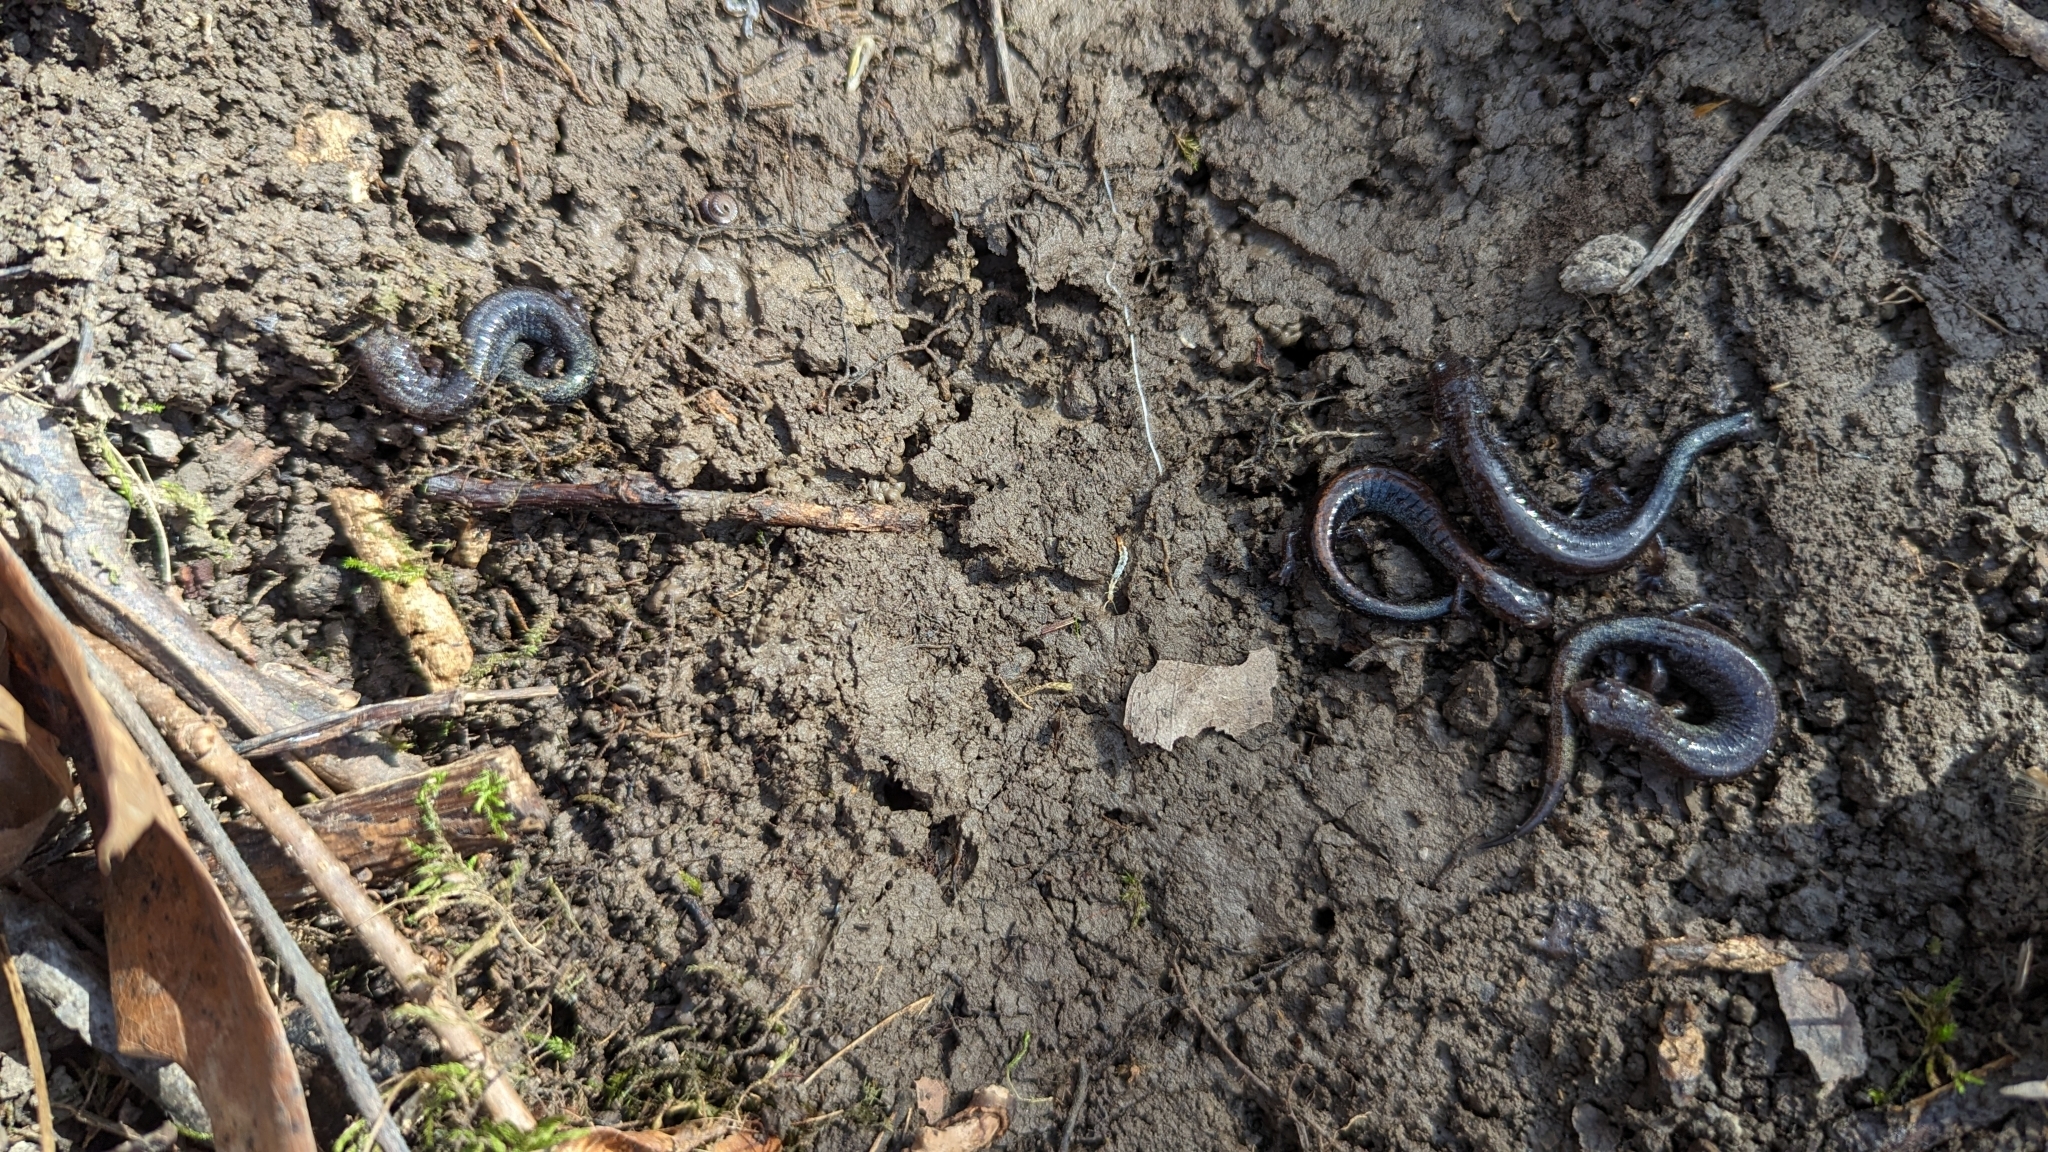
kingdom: Animalia
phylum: Chordata
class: Amphibia
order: Caudata
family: Plethodontidae
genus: Plethodon
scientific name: Plethodon cinereus
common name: Redback salamander
